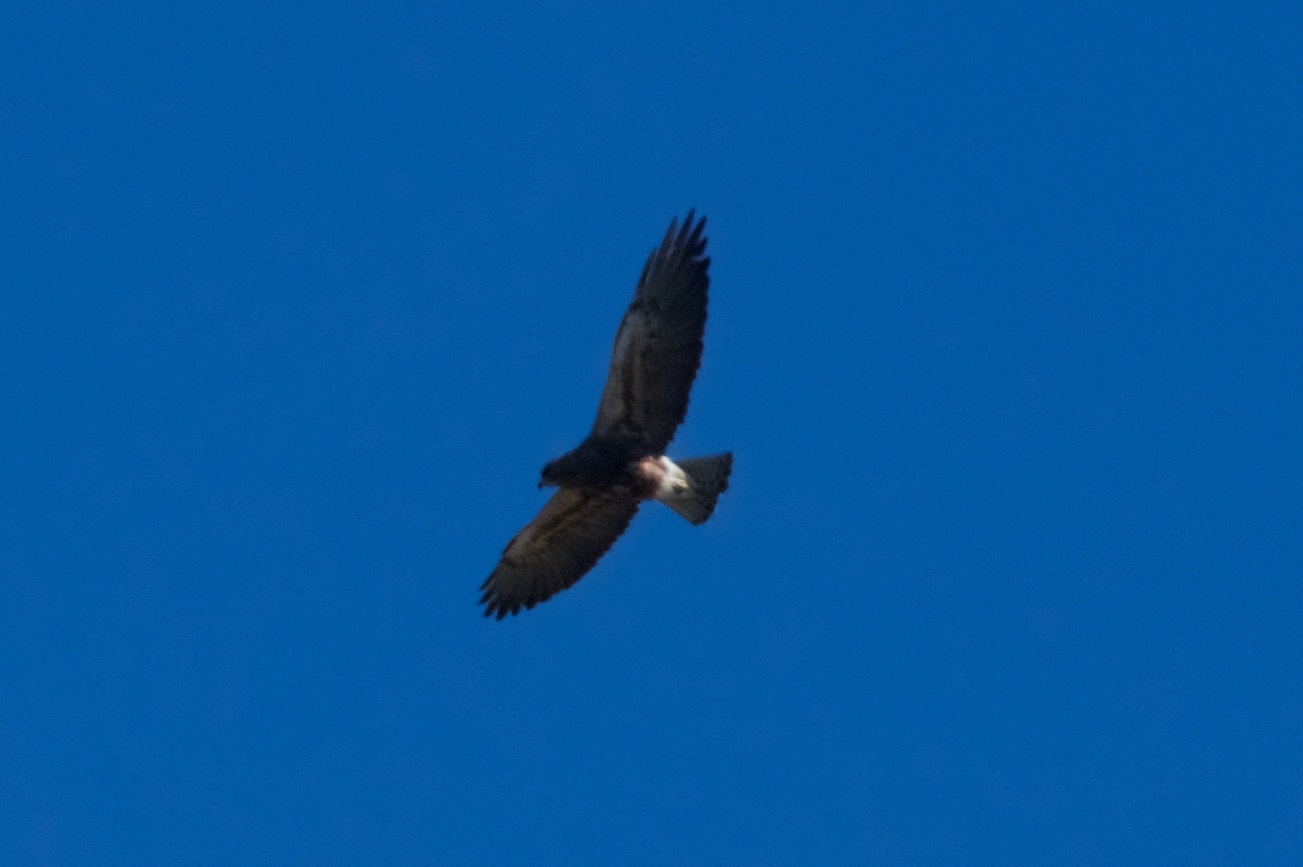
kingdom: Animalia
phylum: Chordata
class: Aves
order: Accipitriformes
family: Accipitridae
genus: Buteo
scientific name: Buteo swainsoni
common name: Swainson's hawk
